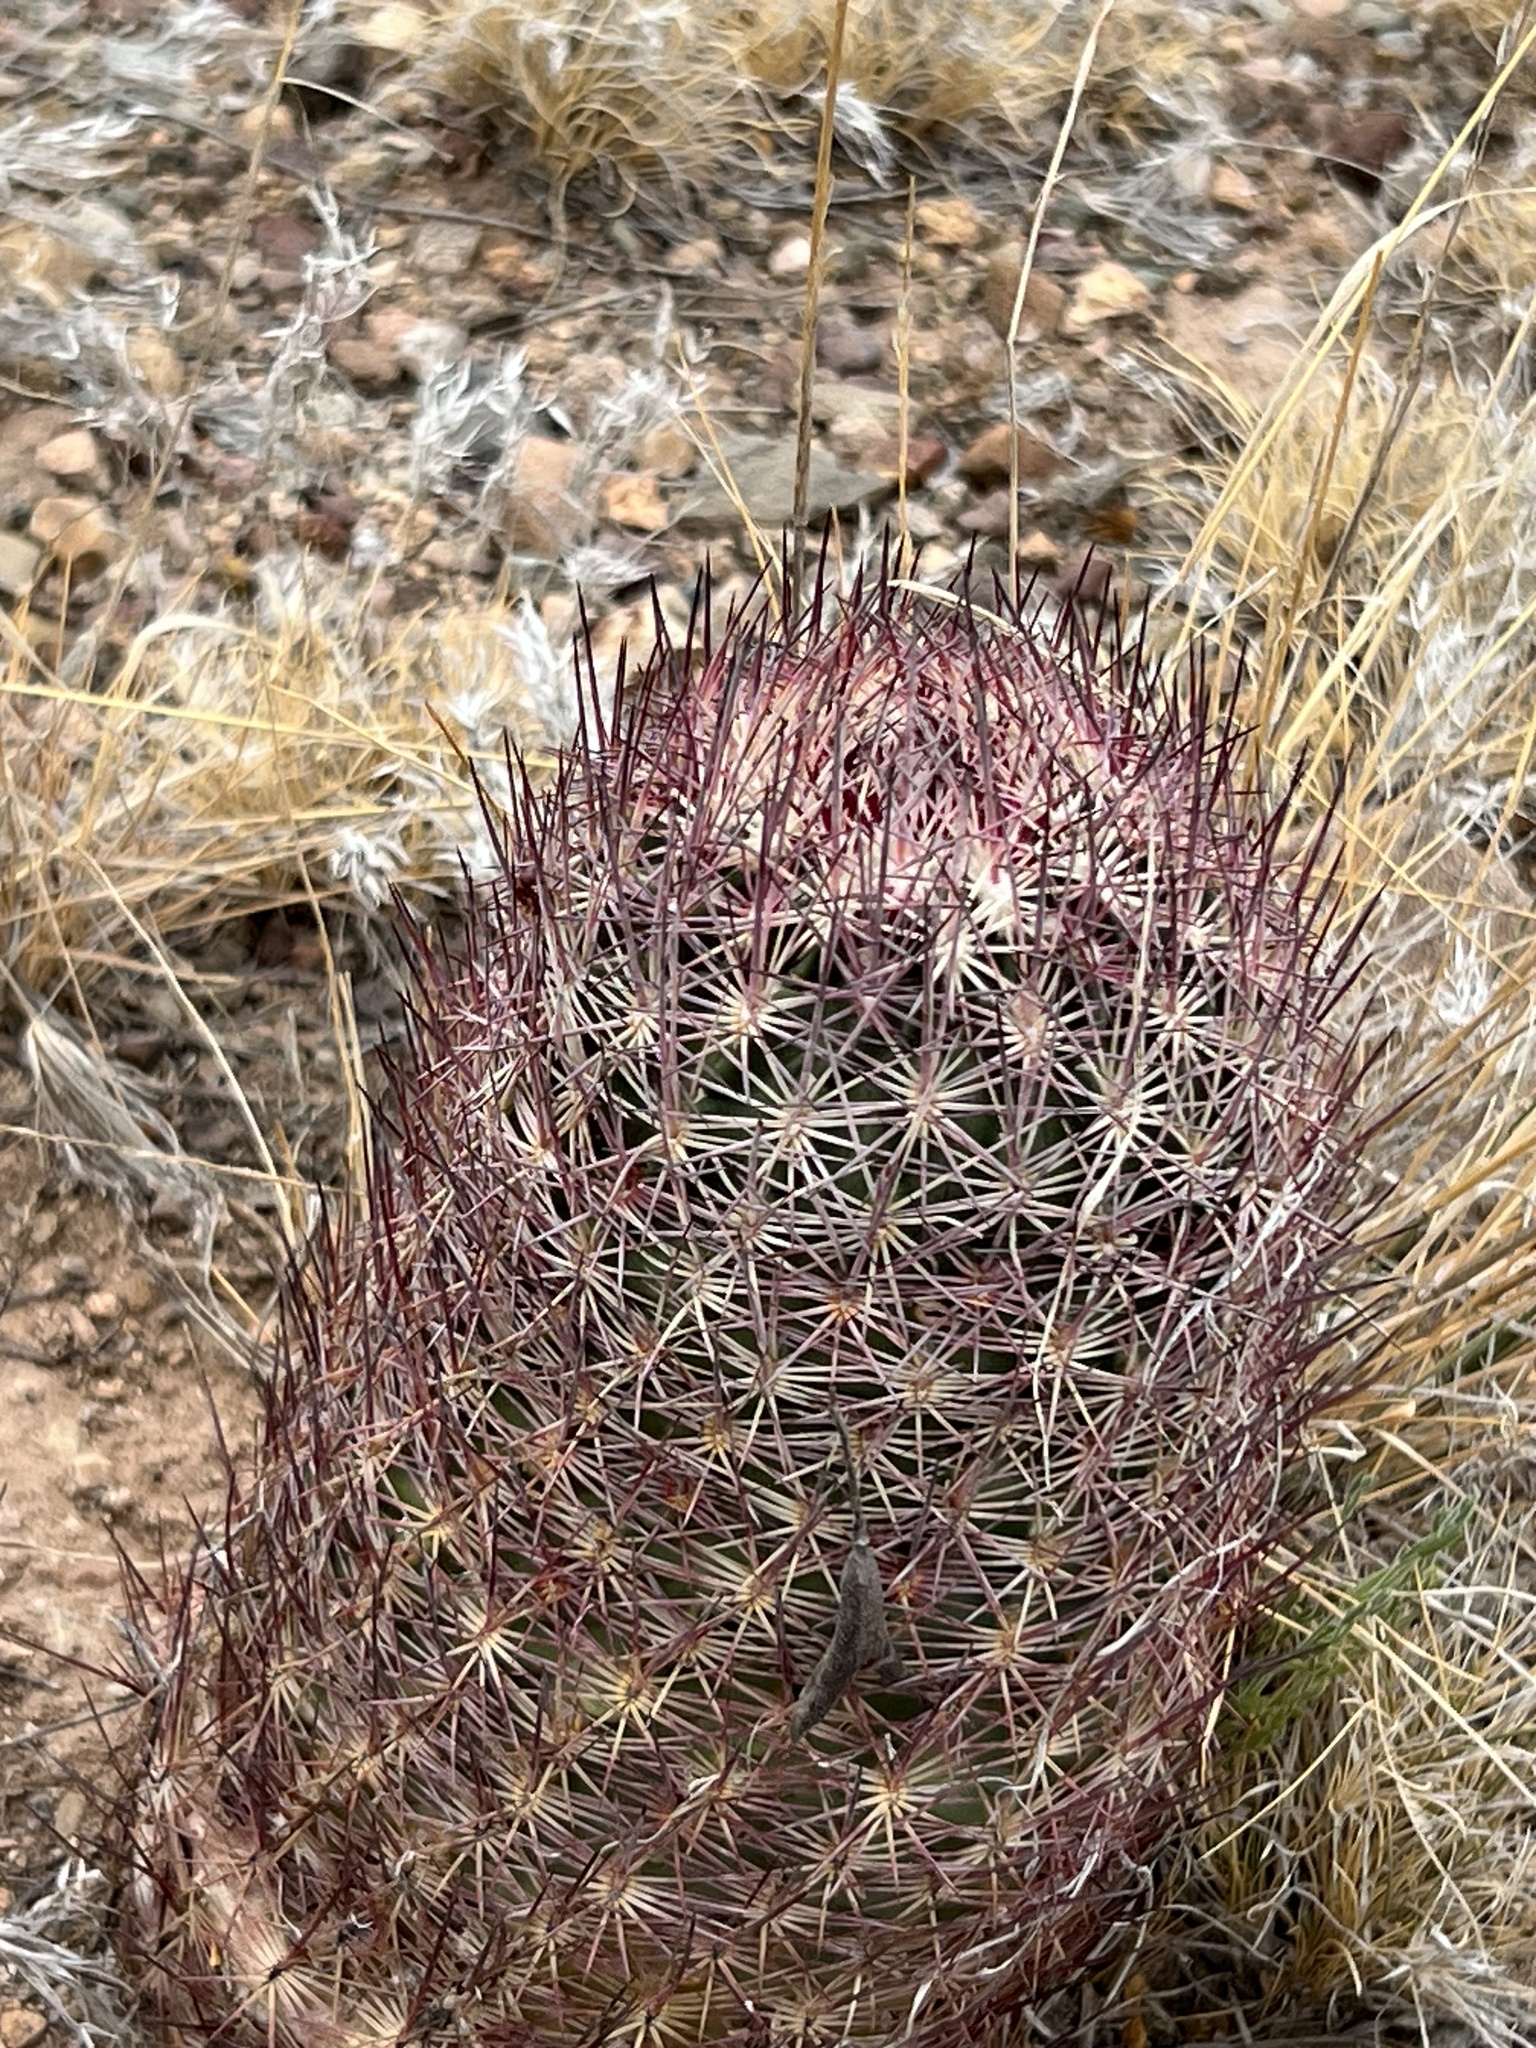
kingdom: Plantae
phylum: Tracheophyta
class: Magnoliopsida
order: Caryophyllales
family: Cactaceae
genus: Sclerocactus
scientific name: Sclerocactus johnsonii
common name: Eight-spine fishhook cactus
